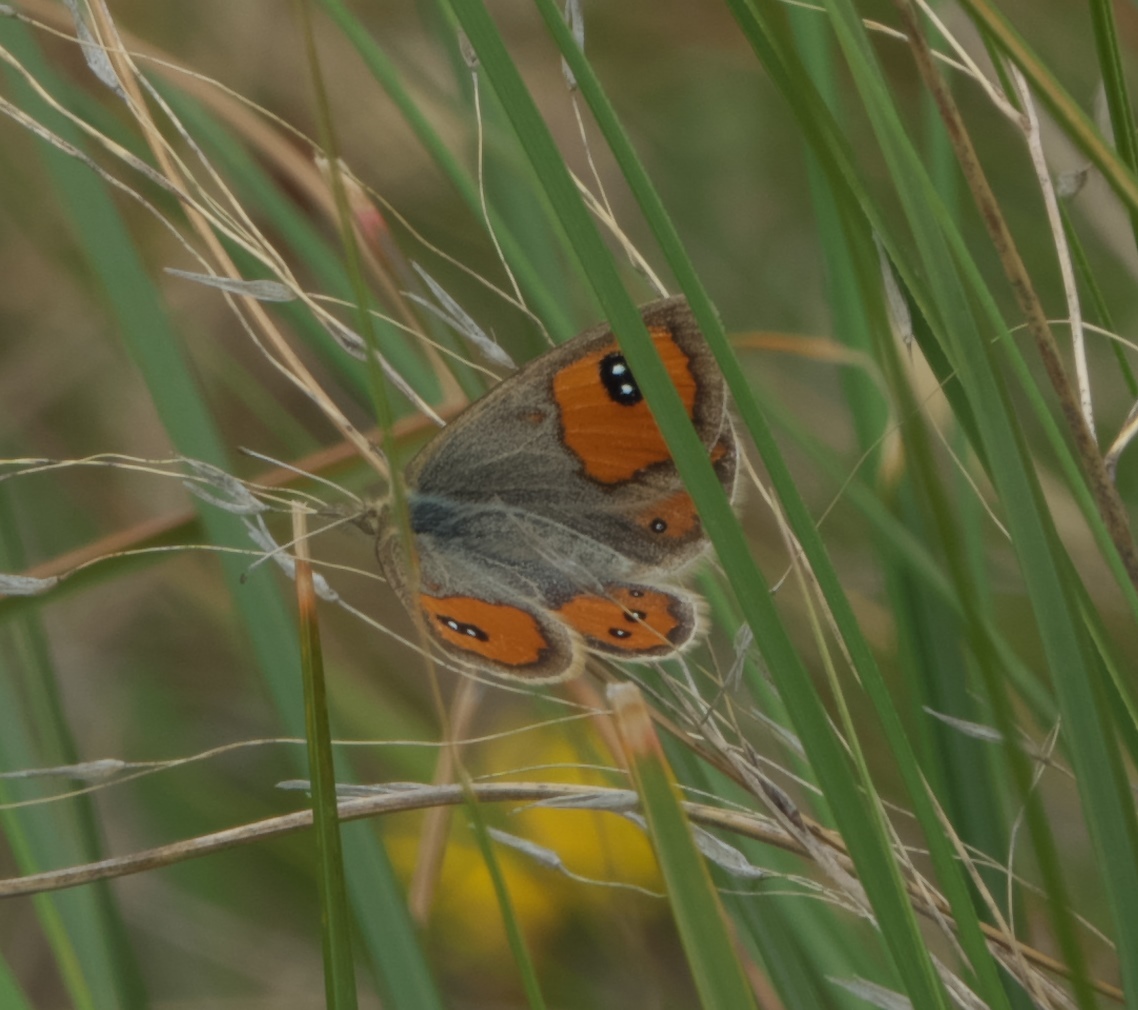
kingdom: Animalia
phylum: Arthropoda
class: Insecta
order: Lepidoptera
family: Nymphalidae
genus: Argyrophenga
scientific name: Argyrophenga antipodum
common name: Common tussock butterfly
